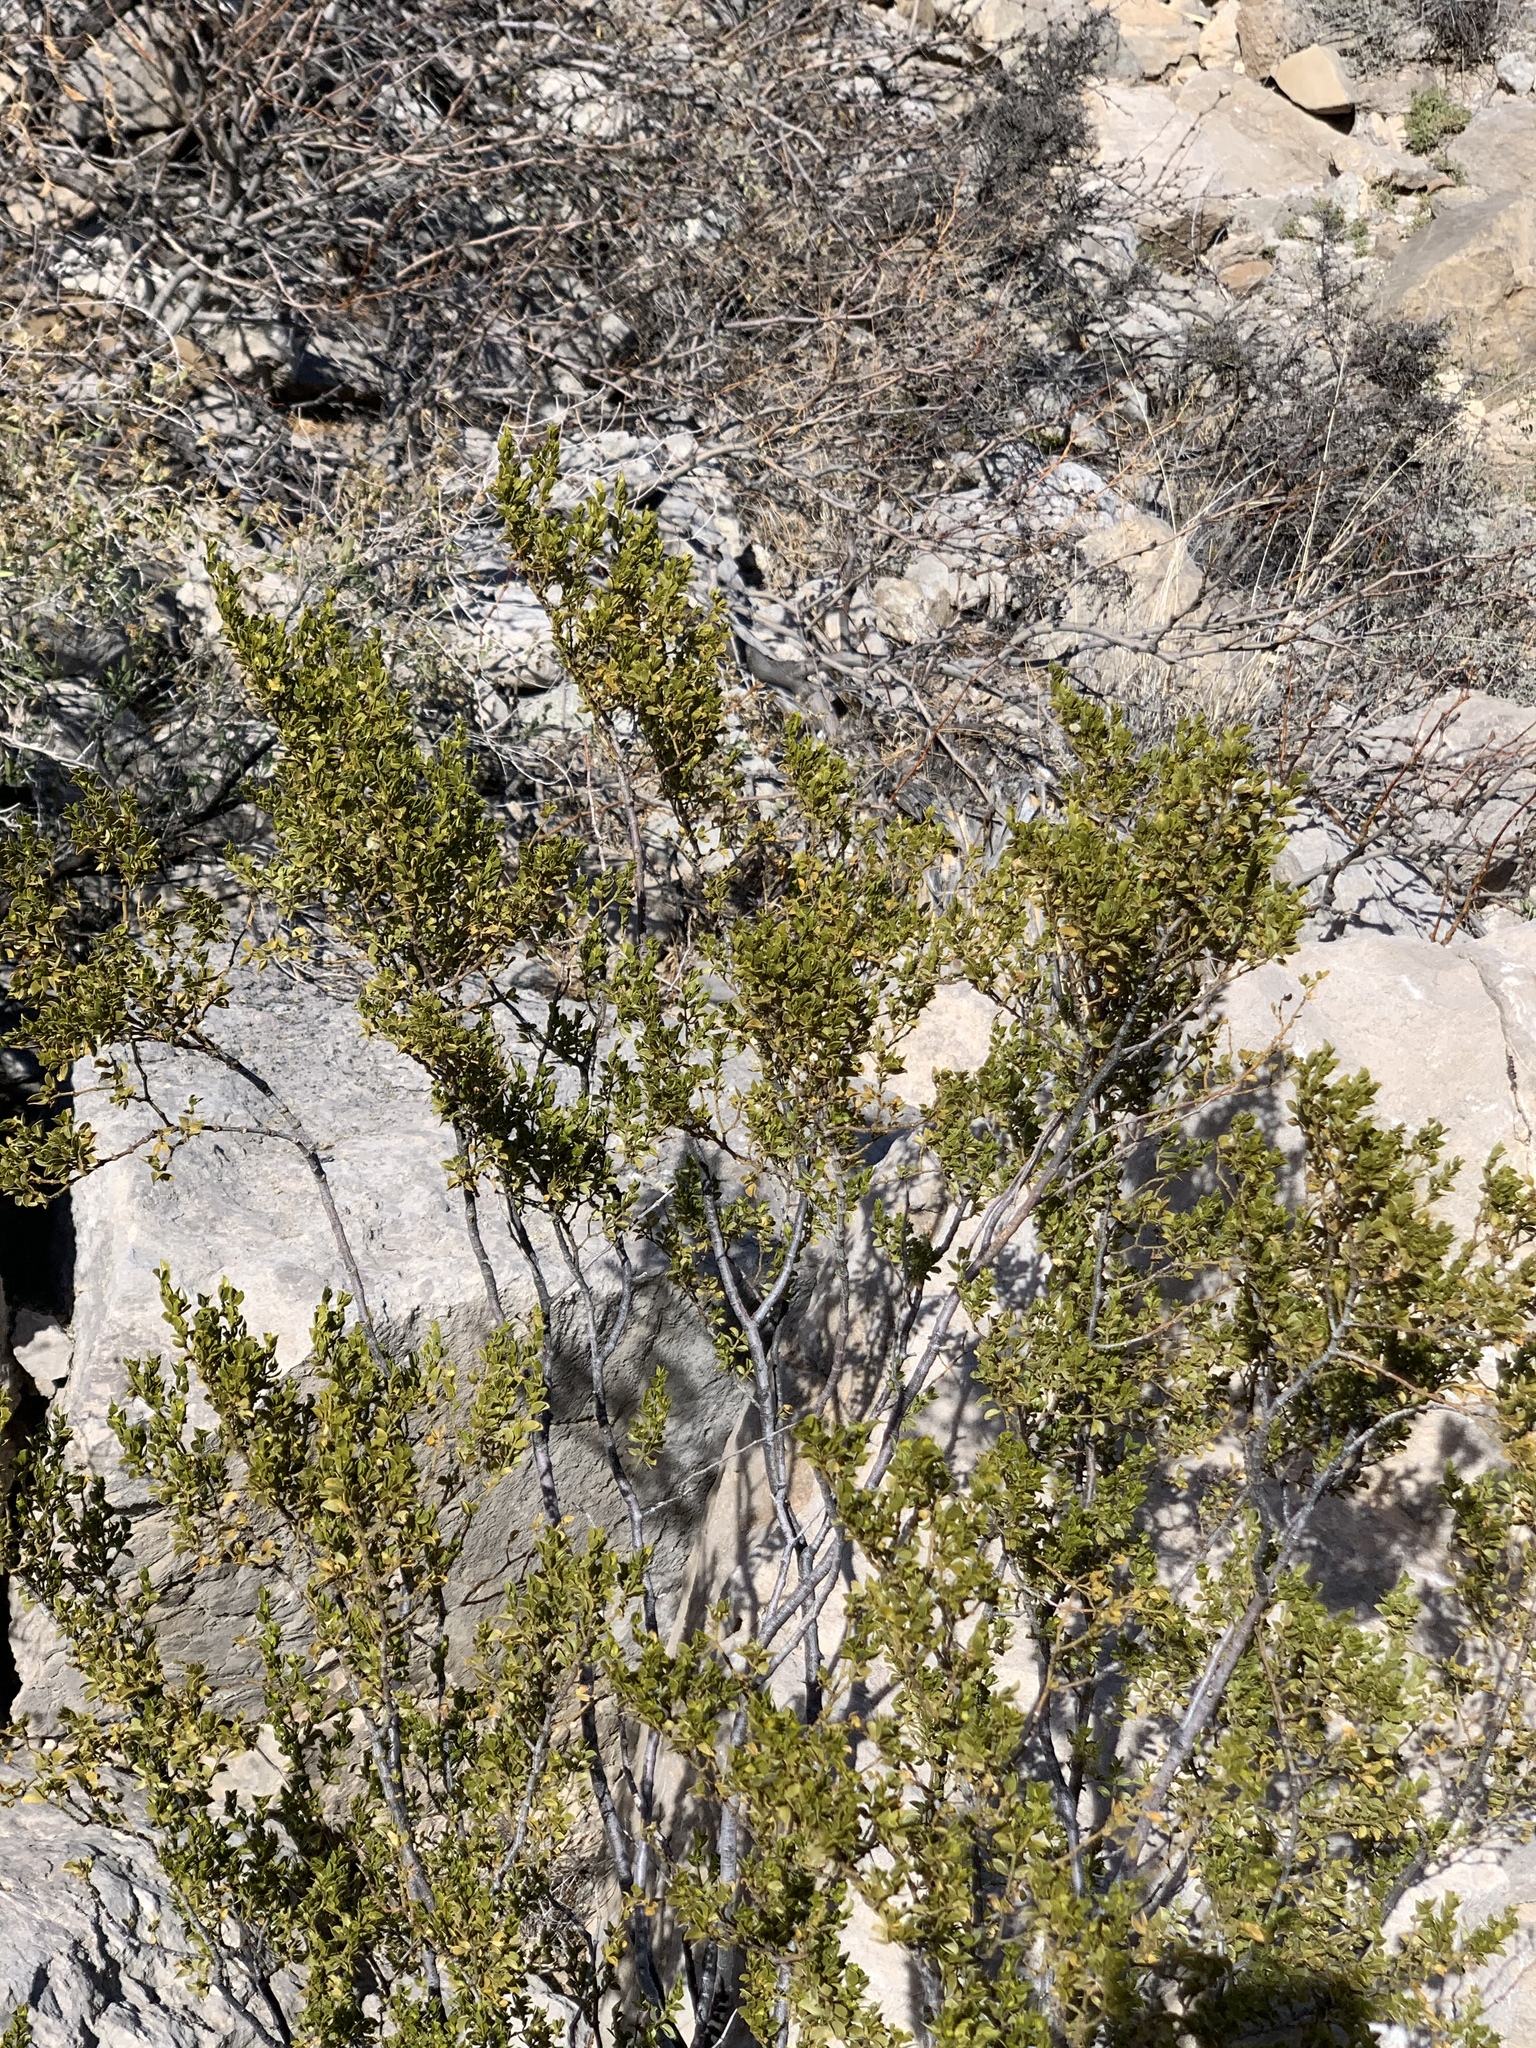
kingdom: Plantae
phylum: Tracheophyta
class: Magnoliopsida
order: Zygophyllales
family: Zygophyllaceae
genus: Larrea
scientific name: Larrea tridentata
